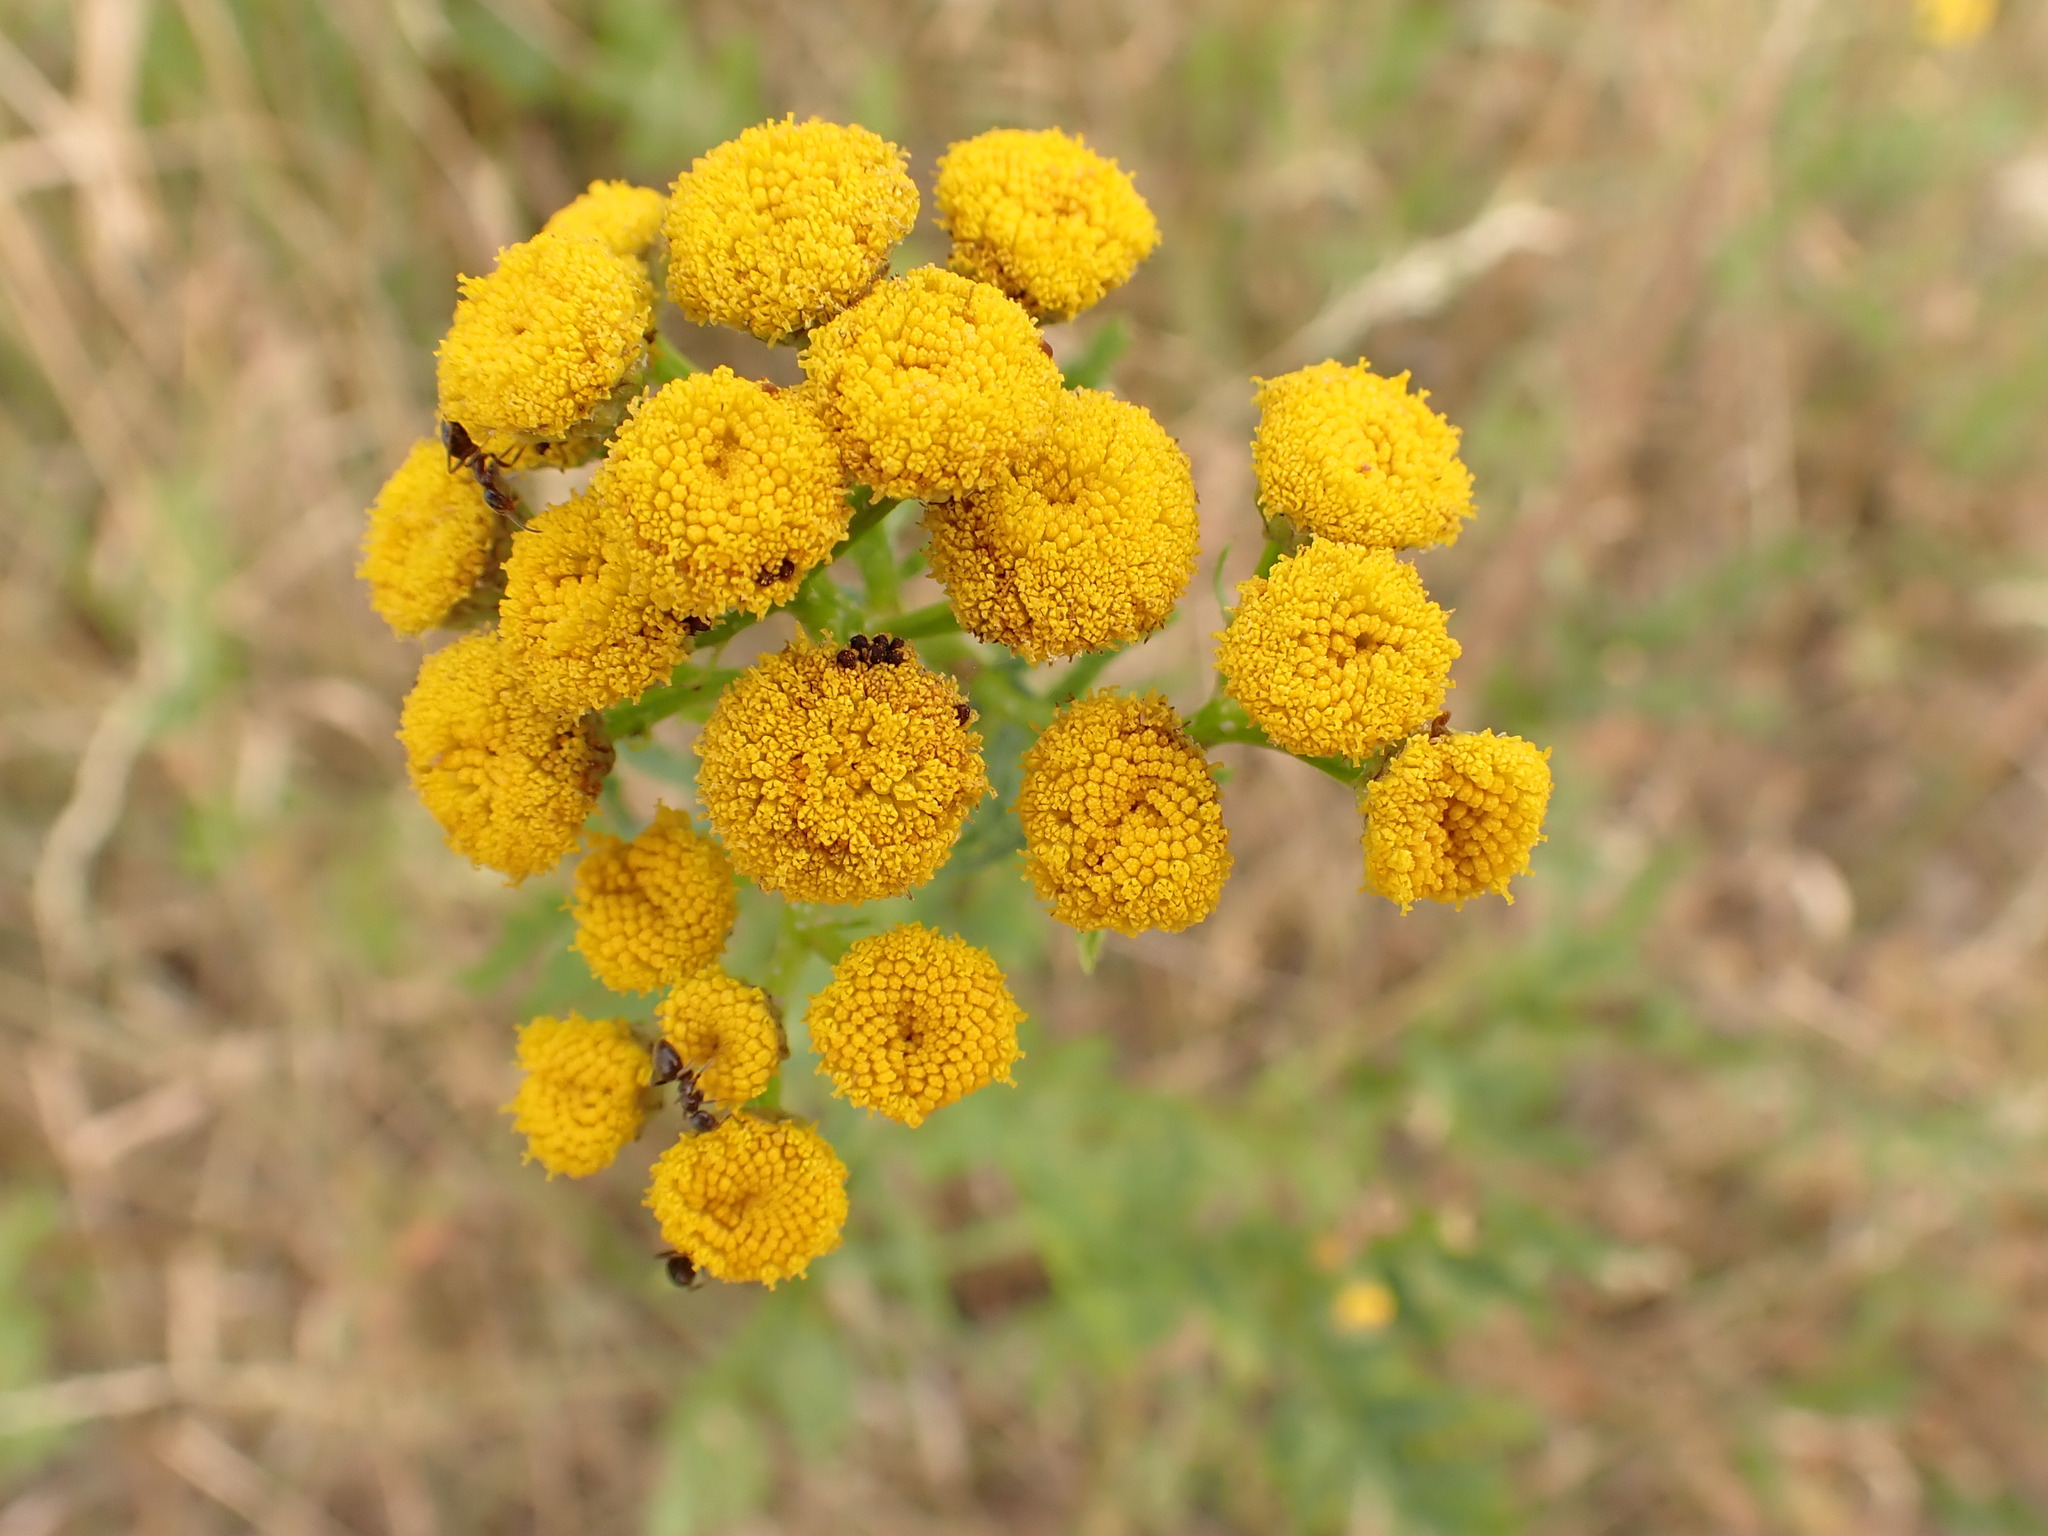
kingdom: Plantae
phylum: Tracheophyta
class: Magnoliopsida
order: Asterales
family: Asteraceae
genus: Tanacetum
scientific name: Tanacetum vulgare
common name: Common tansy
